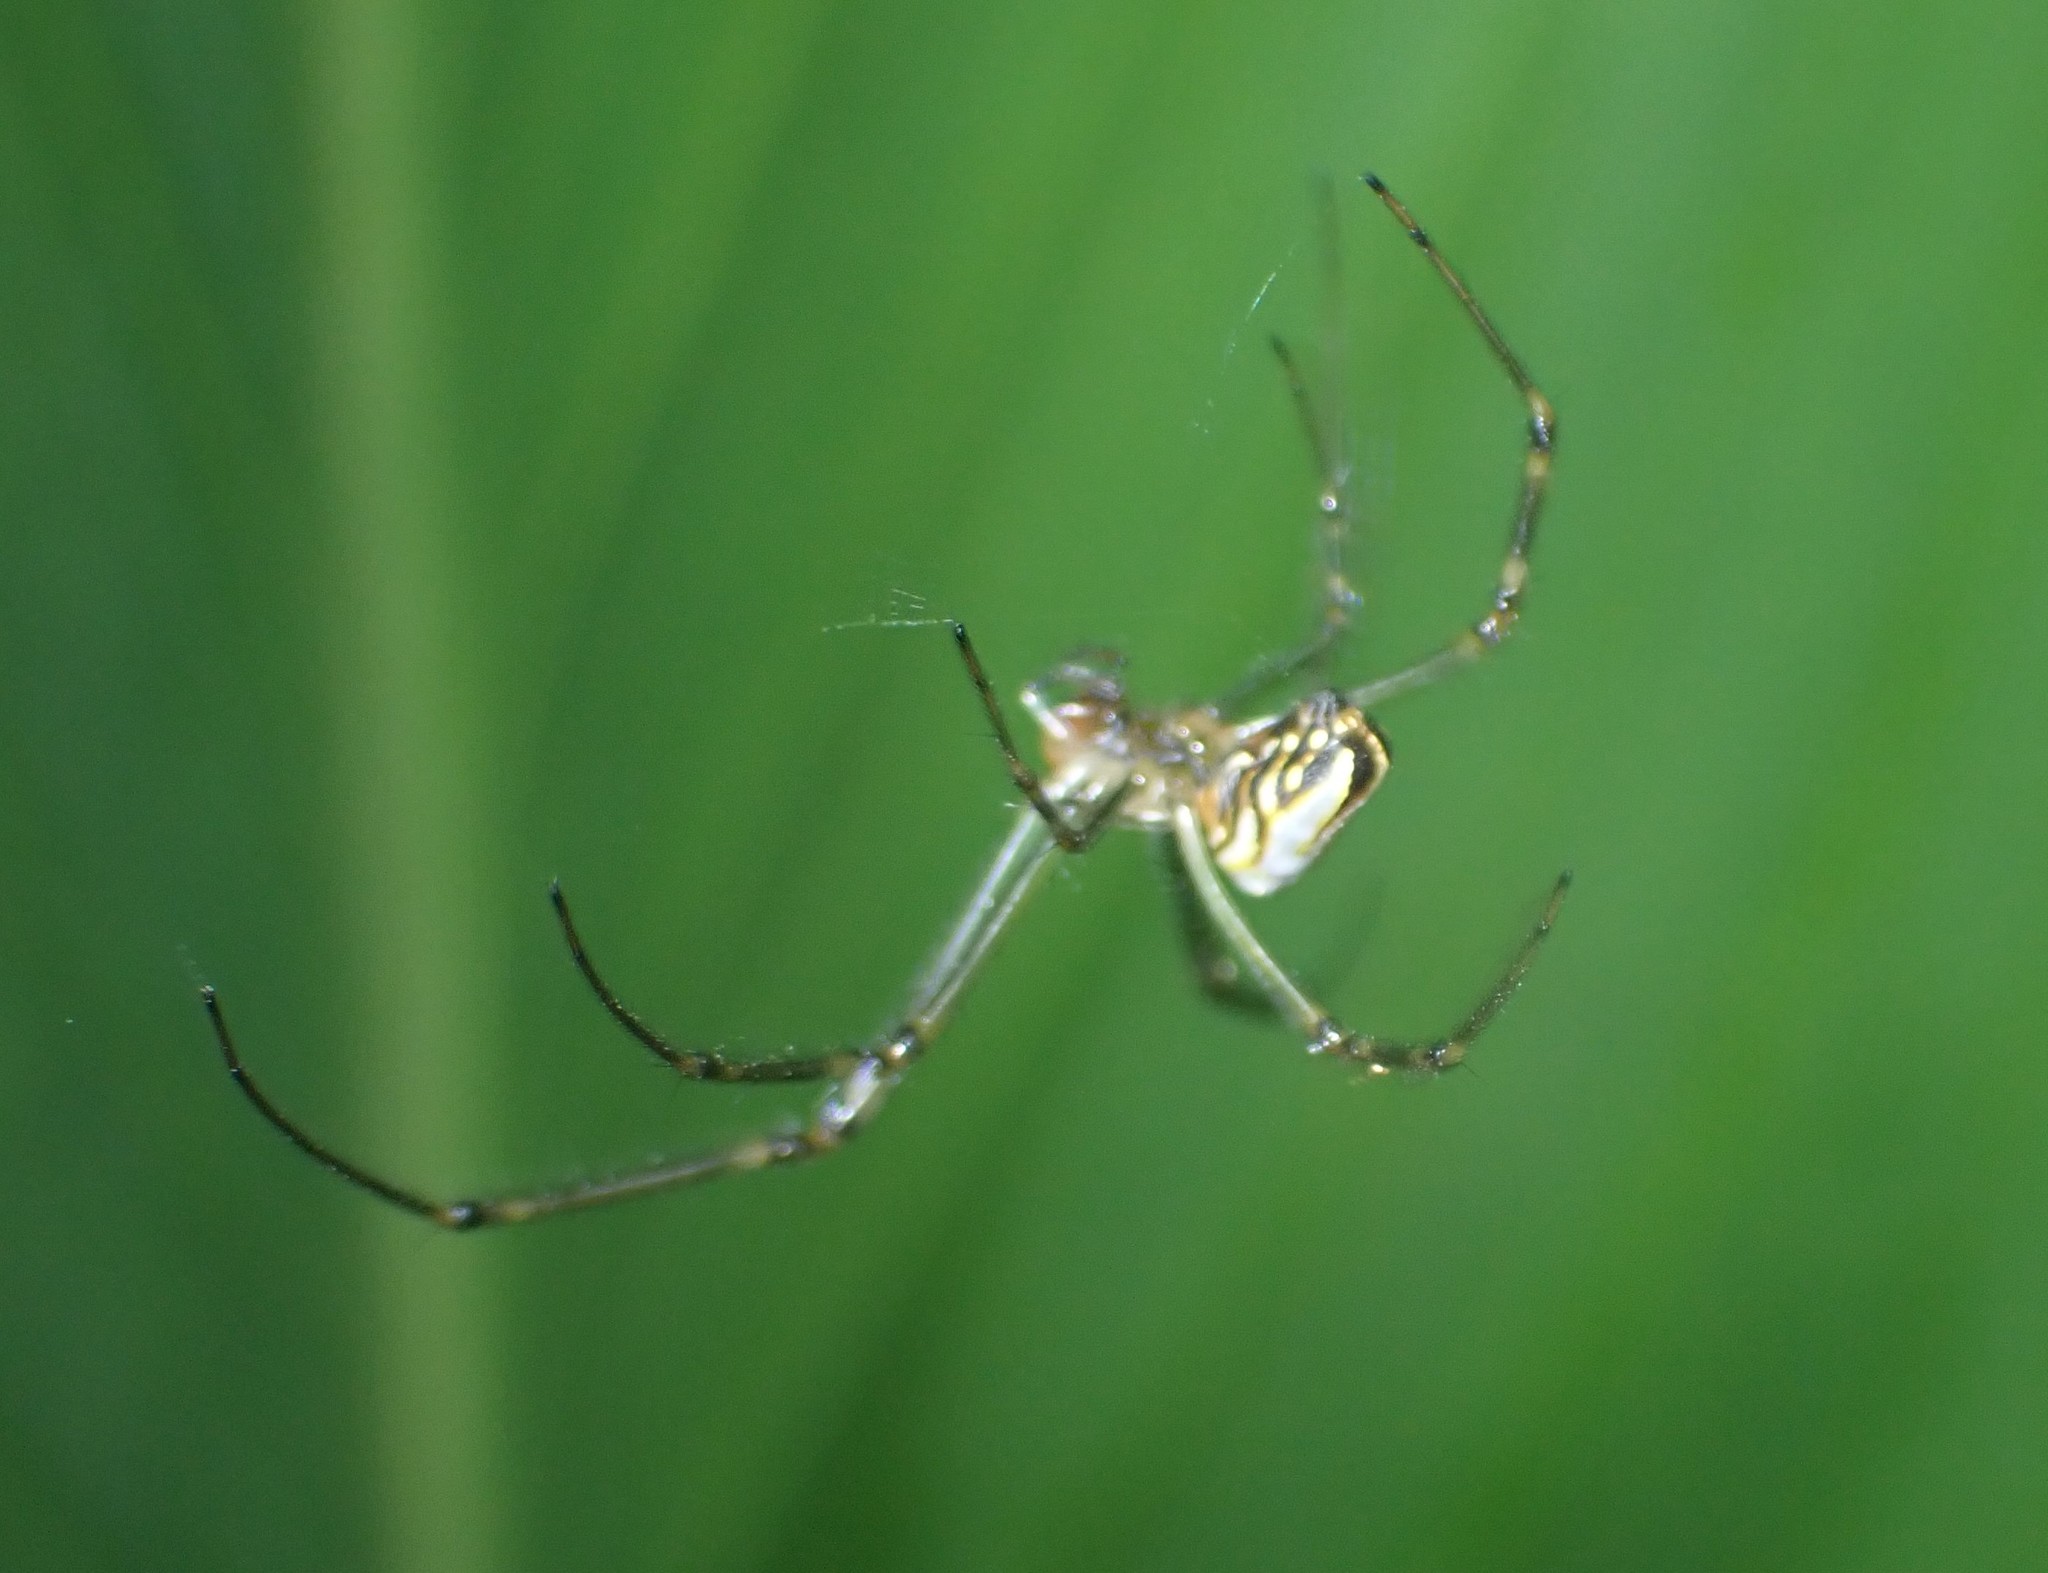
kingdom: Animalia
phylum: Arthropoda
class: Arachnida
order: Araneae
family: Tetragnathidae
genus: Leucauge
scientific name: Leucauge dromedaria
